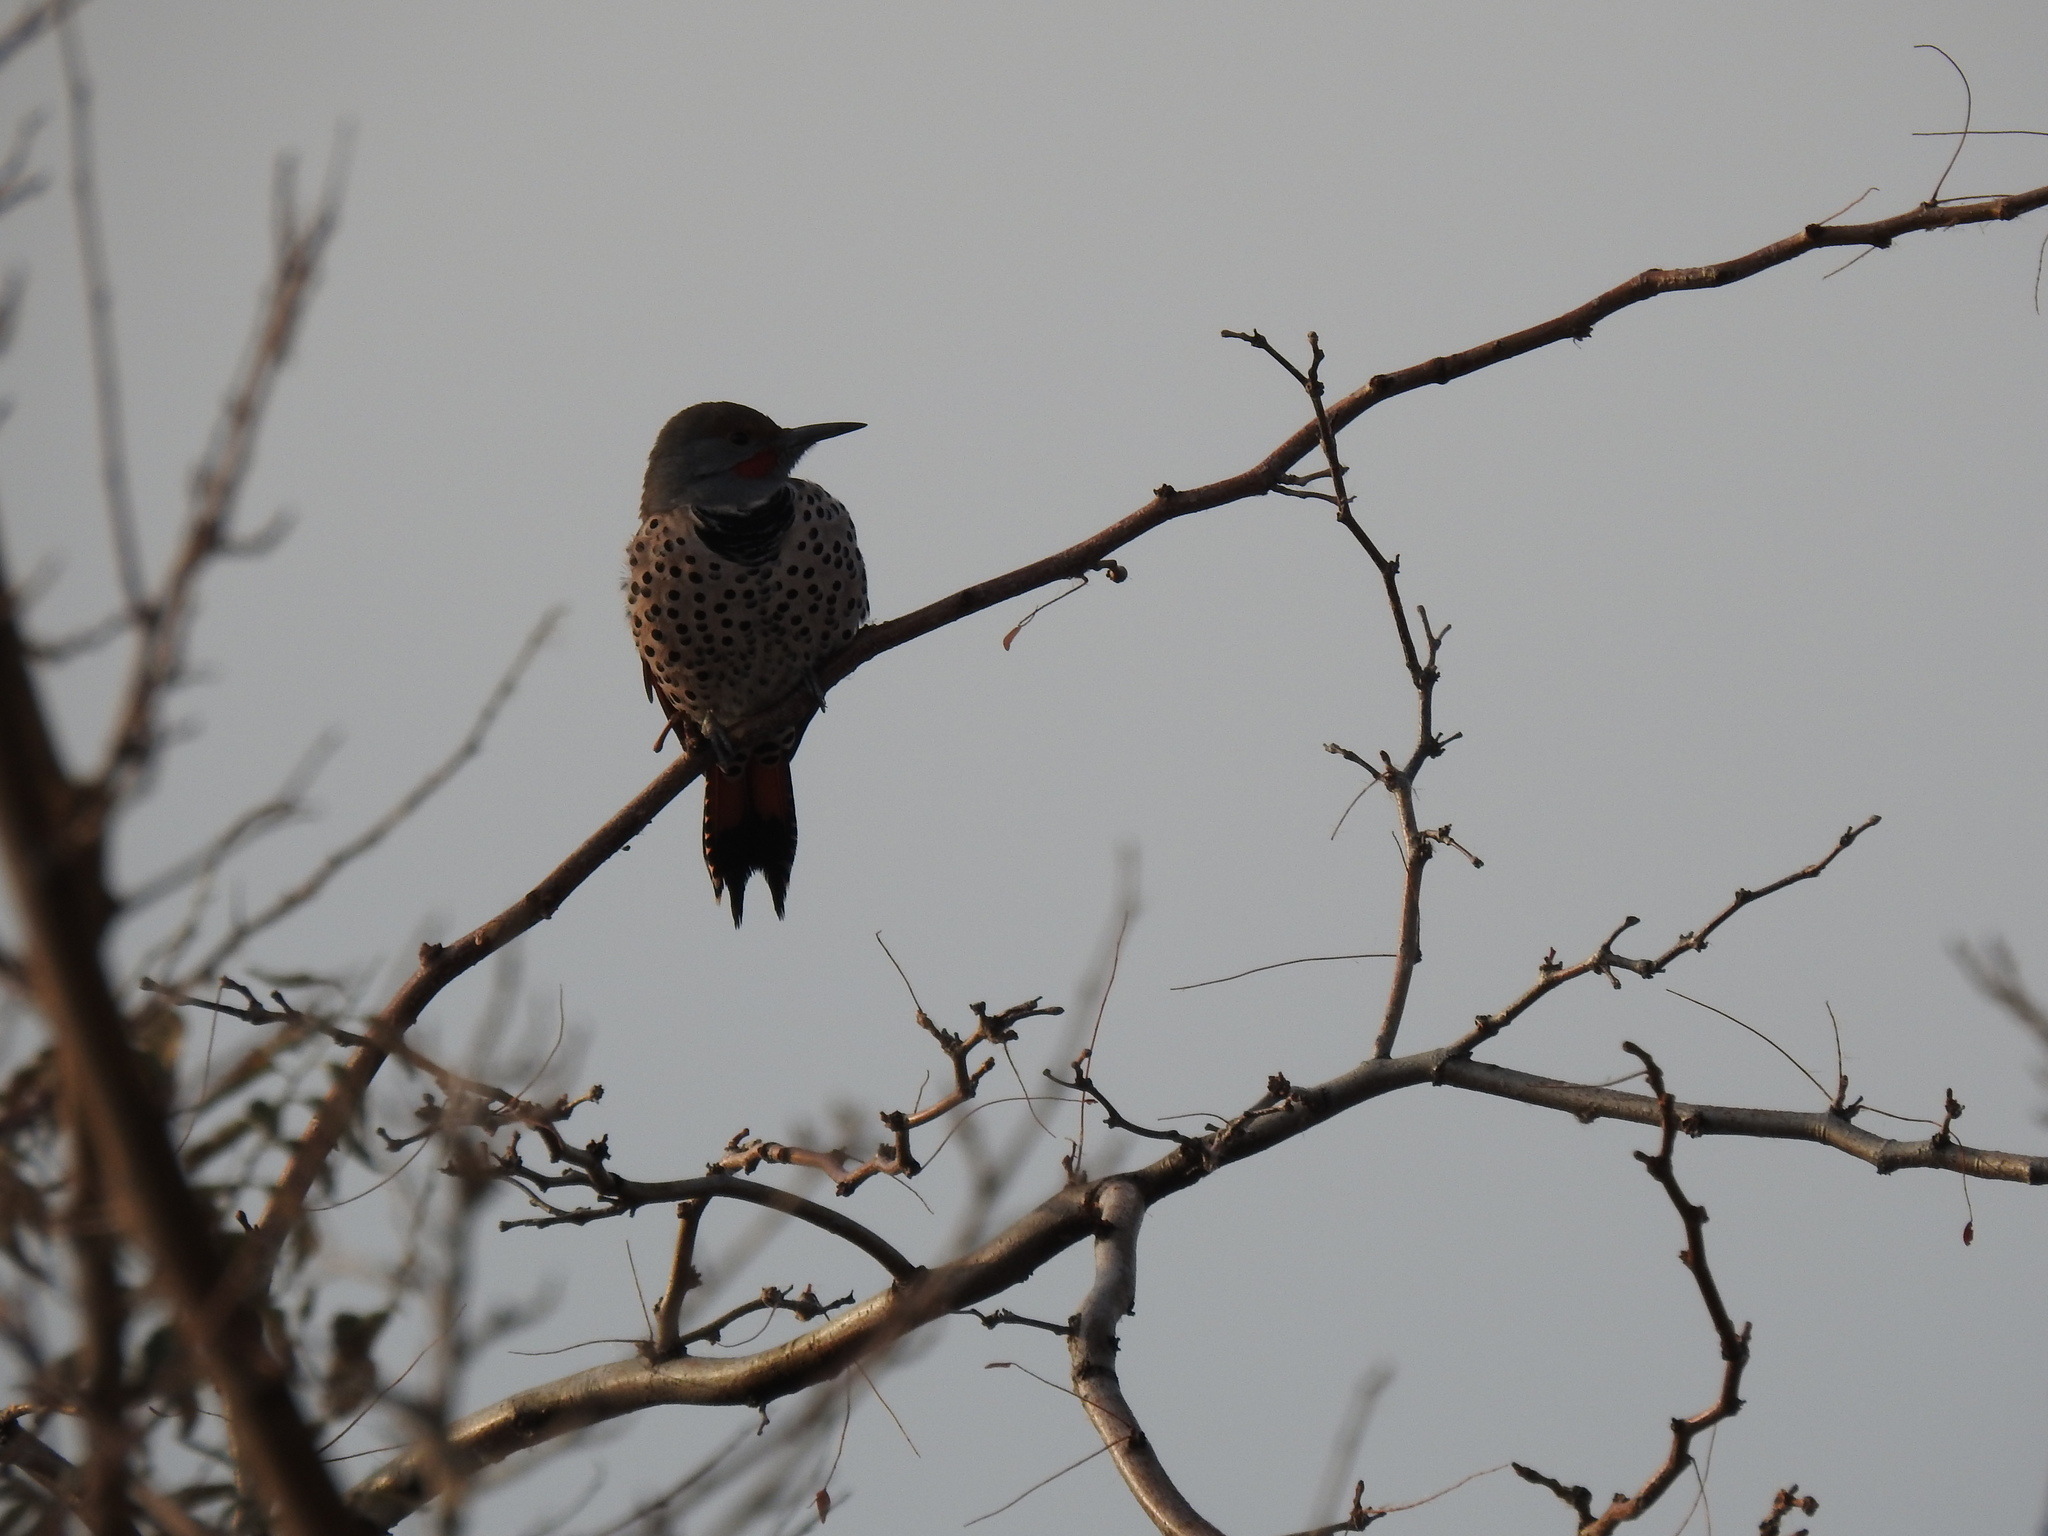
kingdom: Animalia
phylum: Chordata
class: Aves
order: Piciformes
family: Picidae
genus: Colaptes
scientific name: Colaptes auratus
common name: Northern flicker
